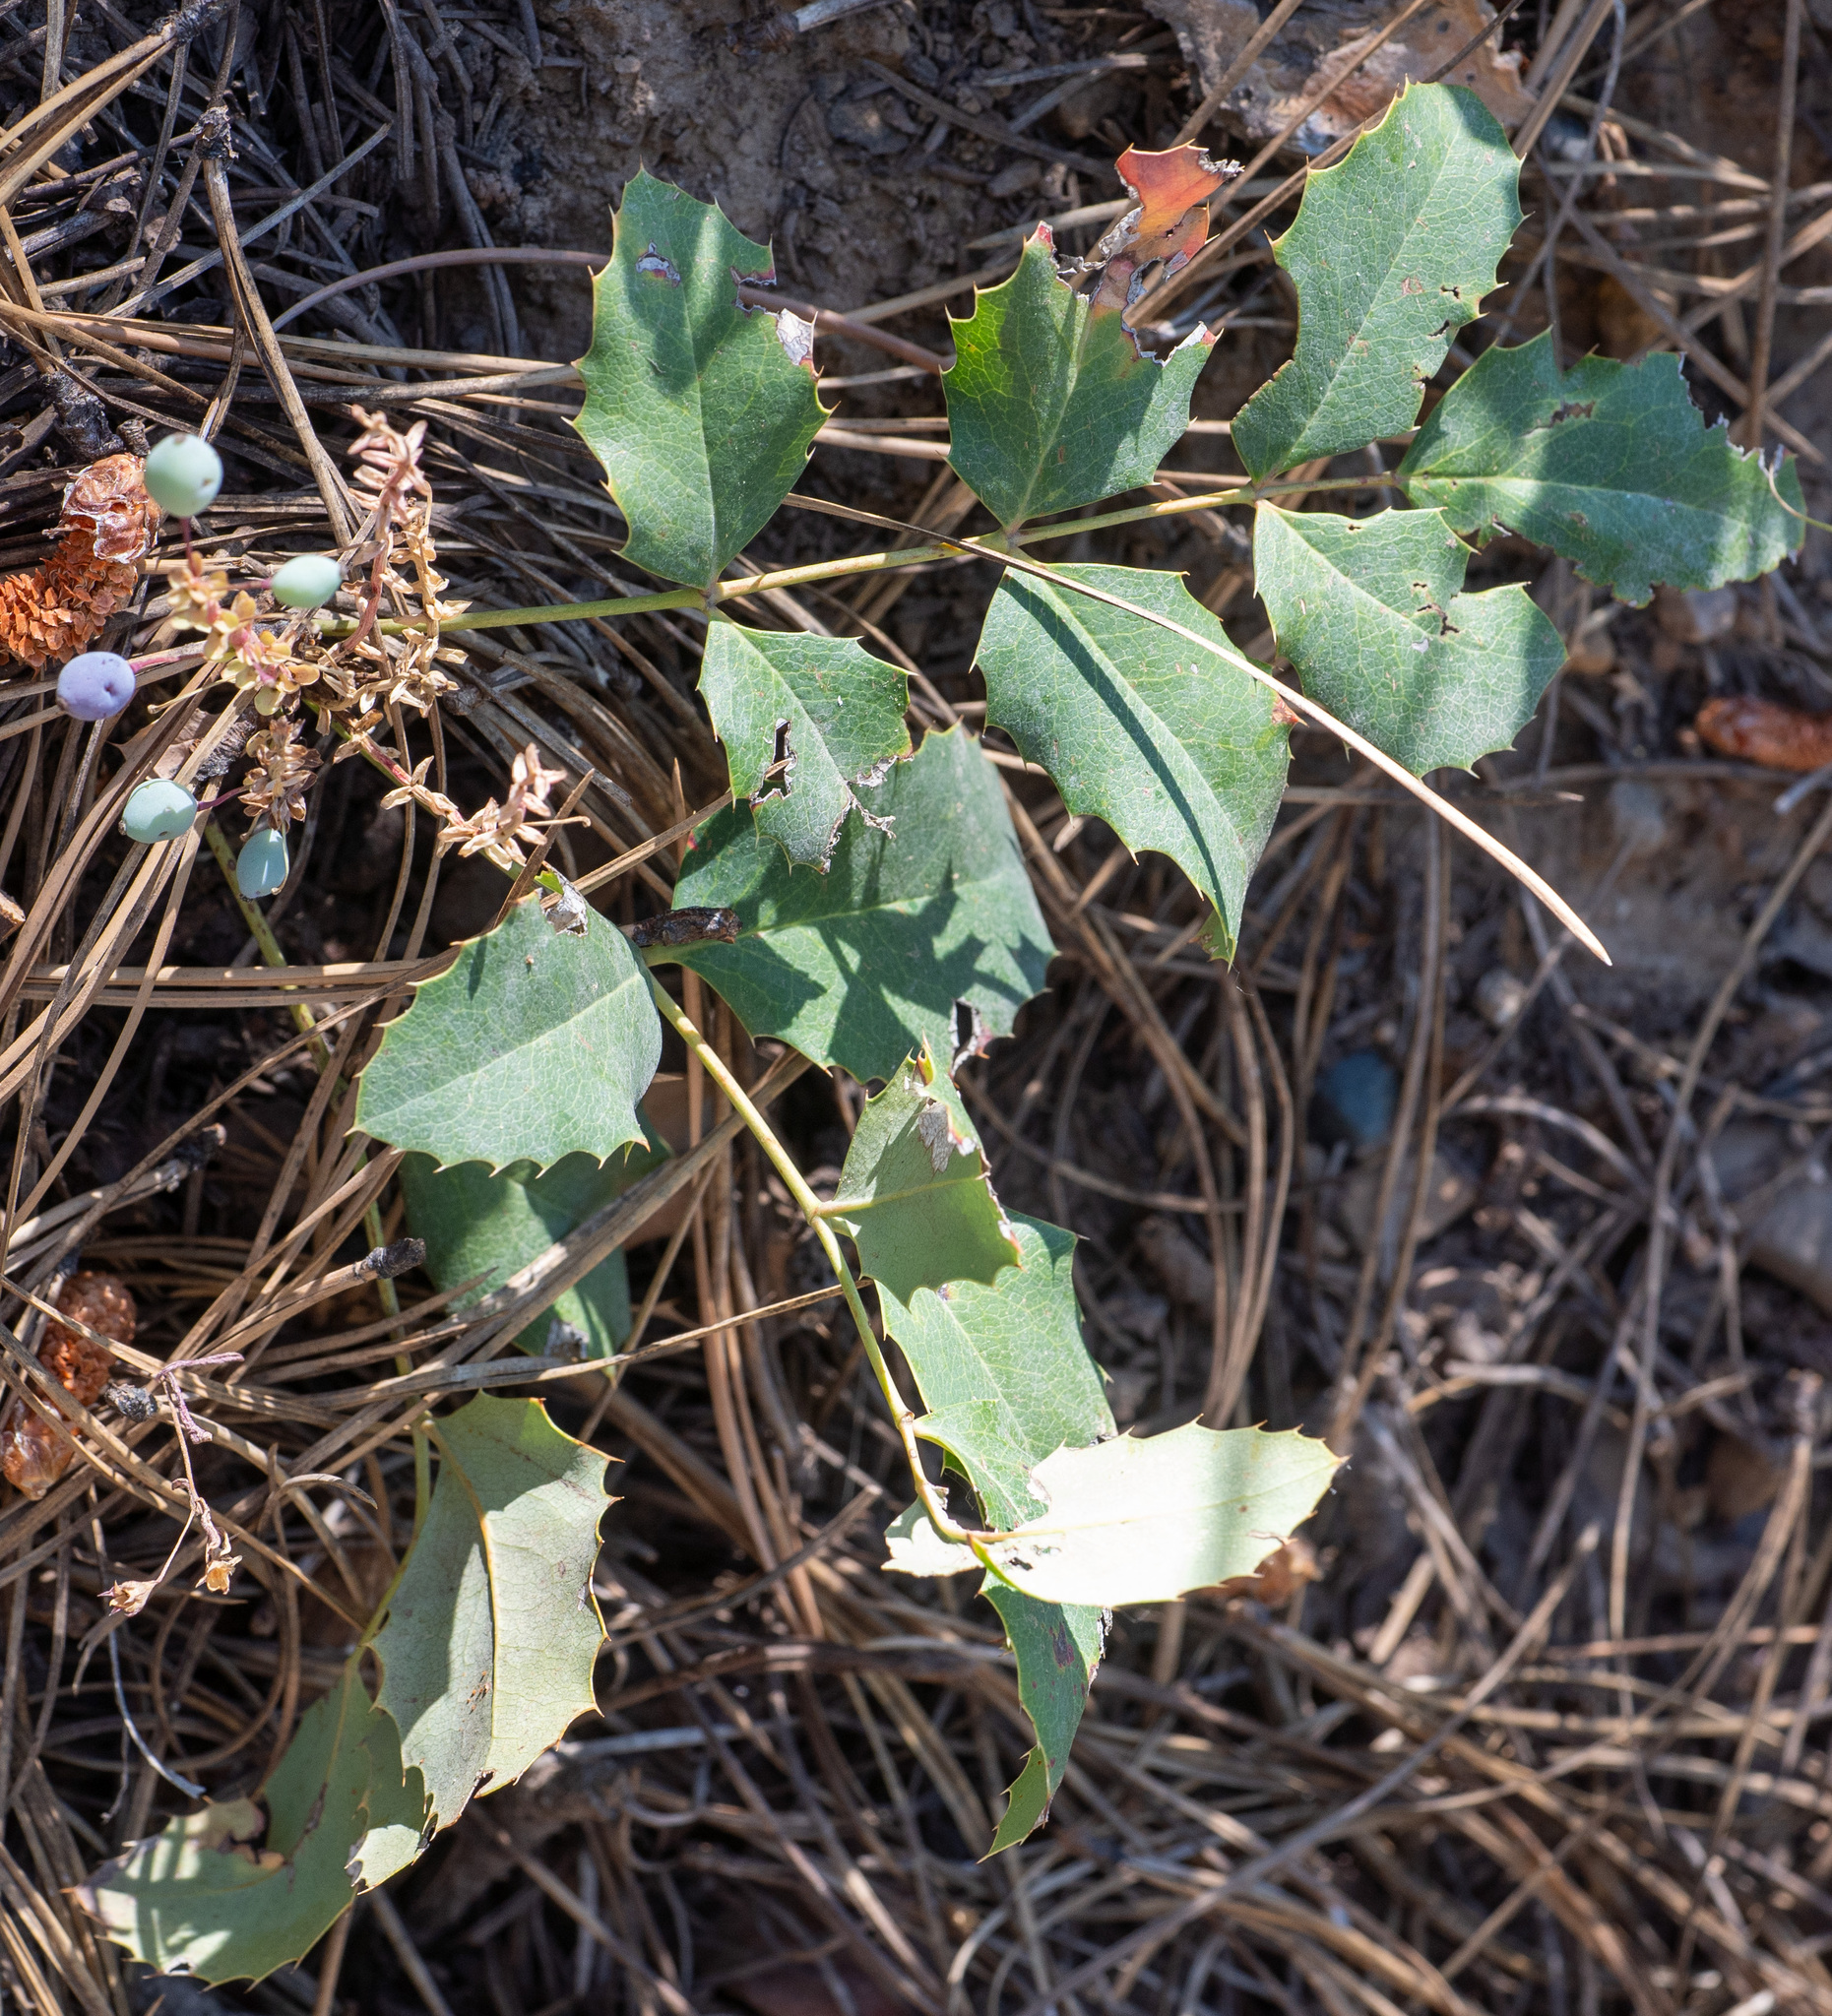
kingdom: Plantae
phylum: Tracheophyta
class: Magnoliopsida
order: Ranunculales
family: Berberidaceae
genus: Mahonia
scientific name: Mahonia repens
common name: Creeping oregon-grape
